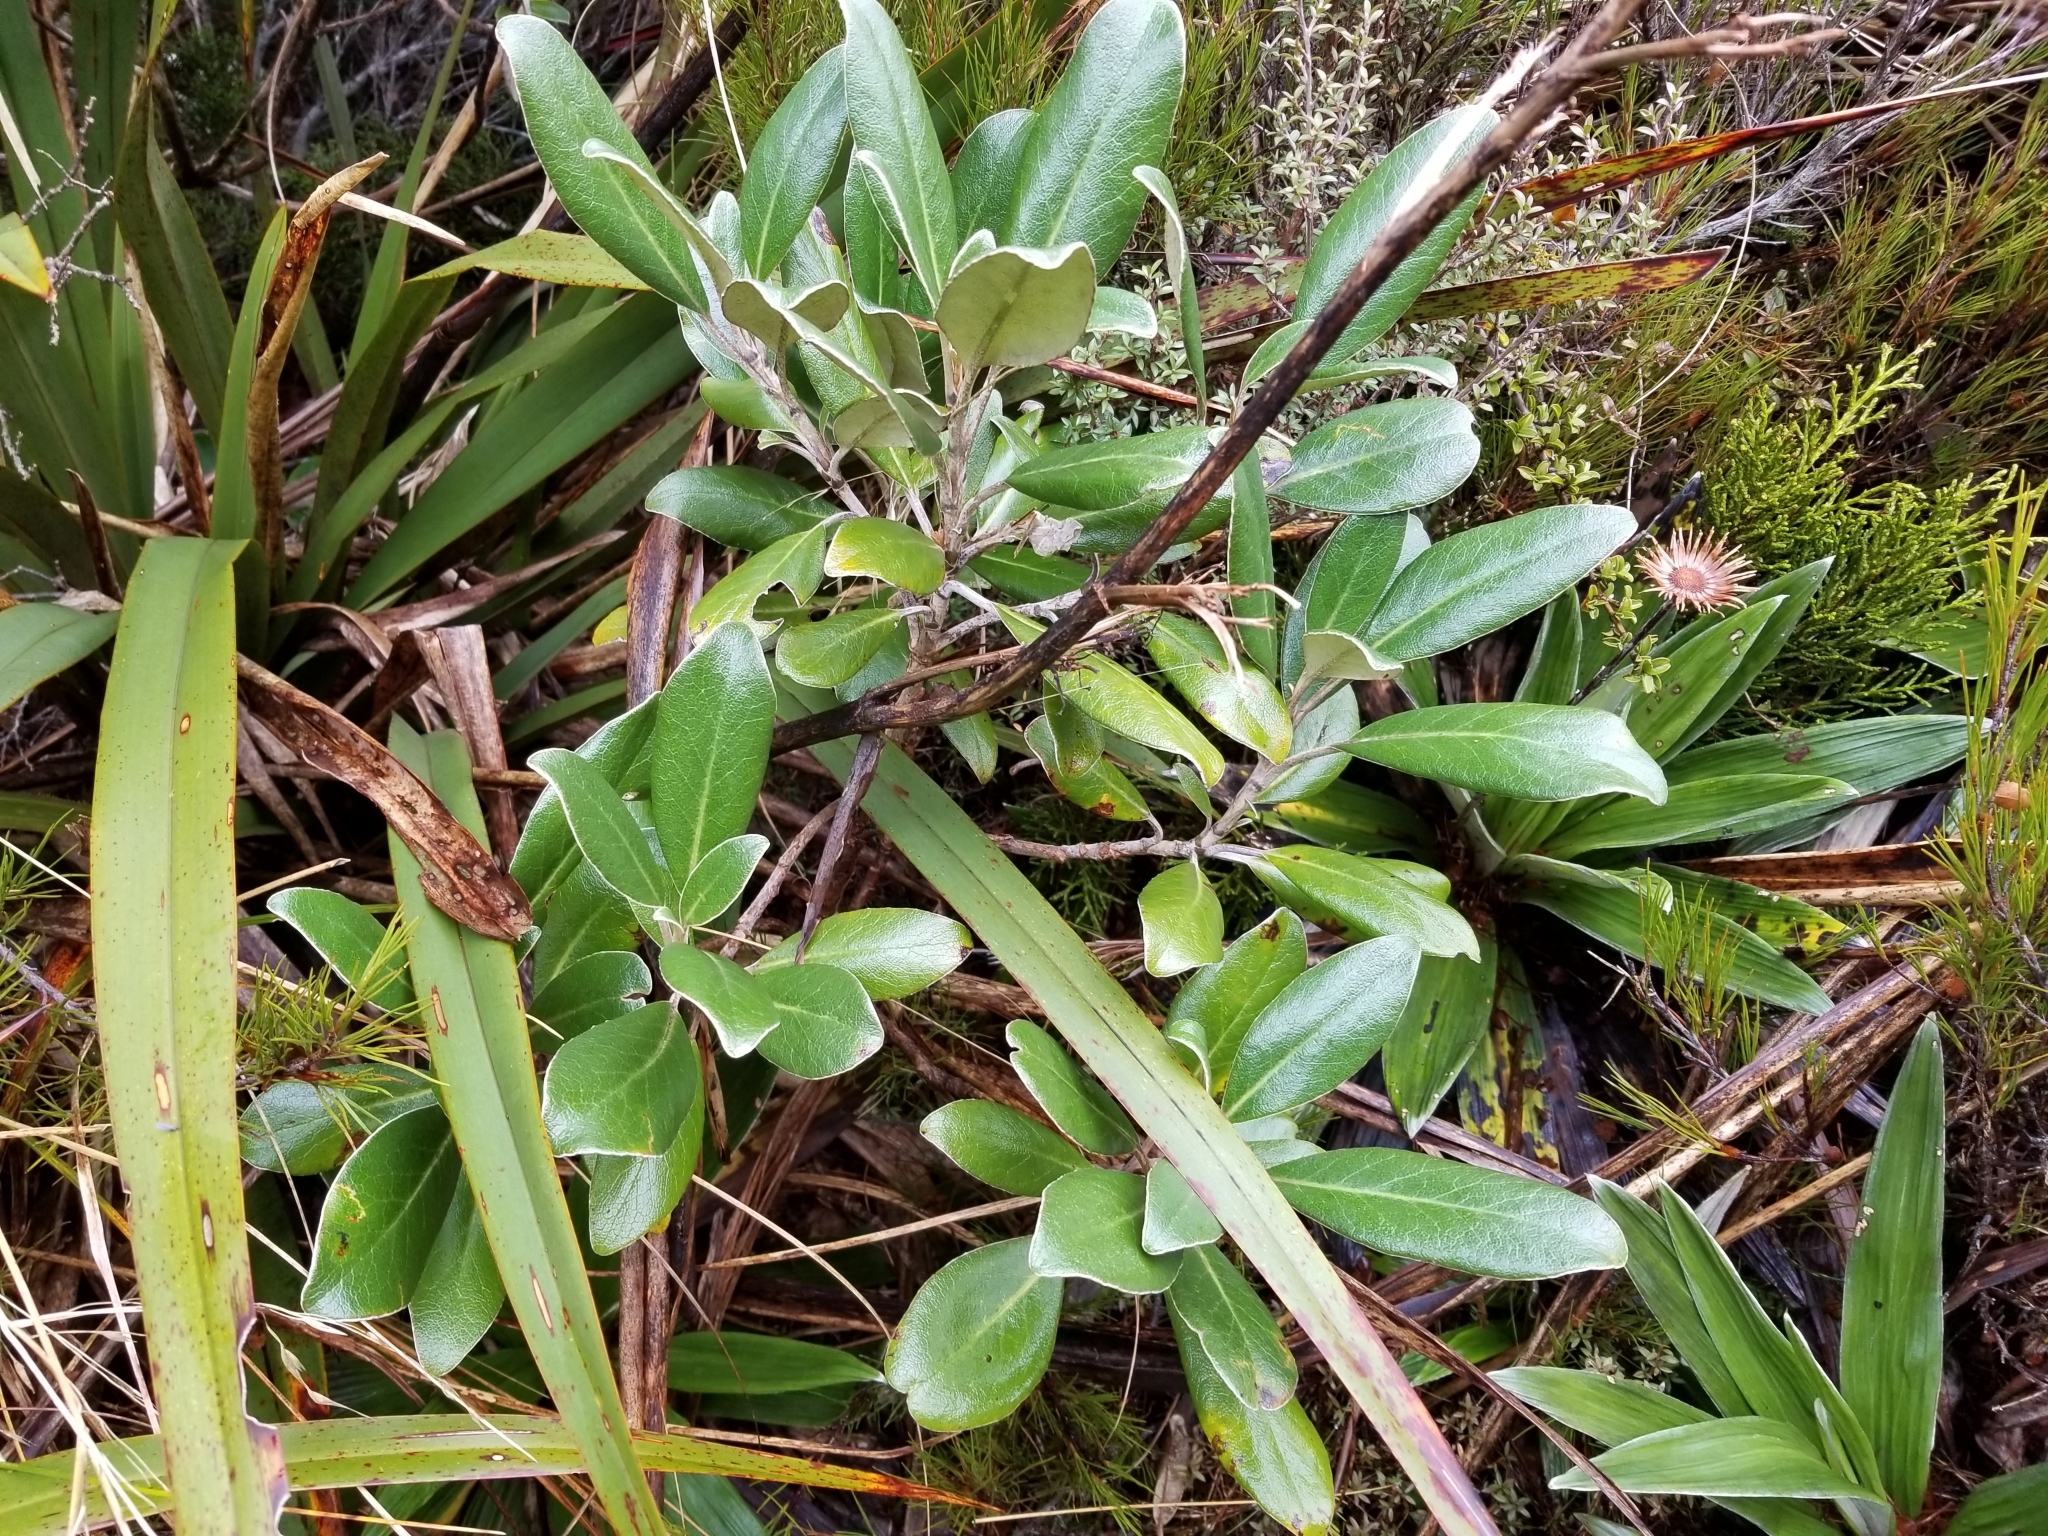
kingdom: Plantae
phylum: Tracheophyta
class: Magnoliopsida
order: Asterales
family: Asteraceae
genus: Brachyglottis
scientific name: Brachyglottis buchananii
